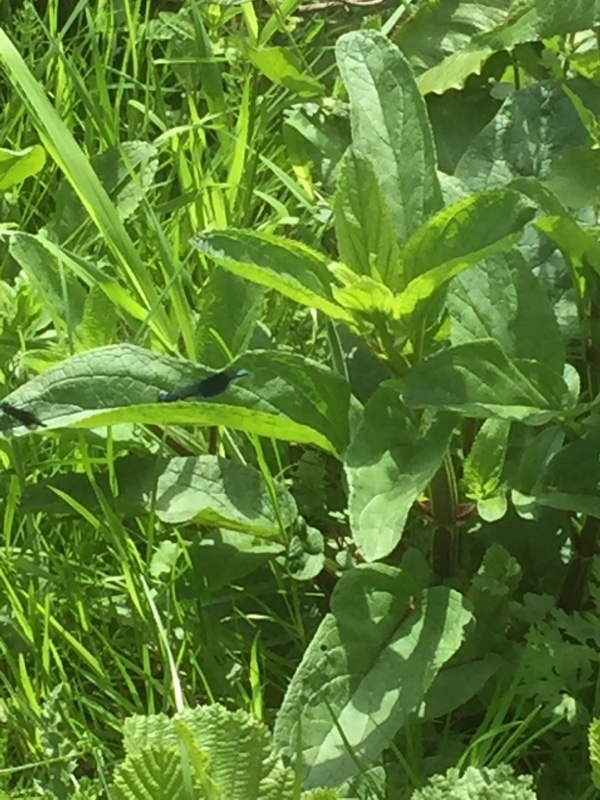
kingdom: Animalia
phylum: Arthropoda
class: Insecta
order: Odonata
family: Calopterygidae
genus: Calopteryx
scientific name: Calopteryx splendens
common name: Banded demoiselle
